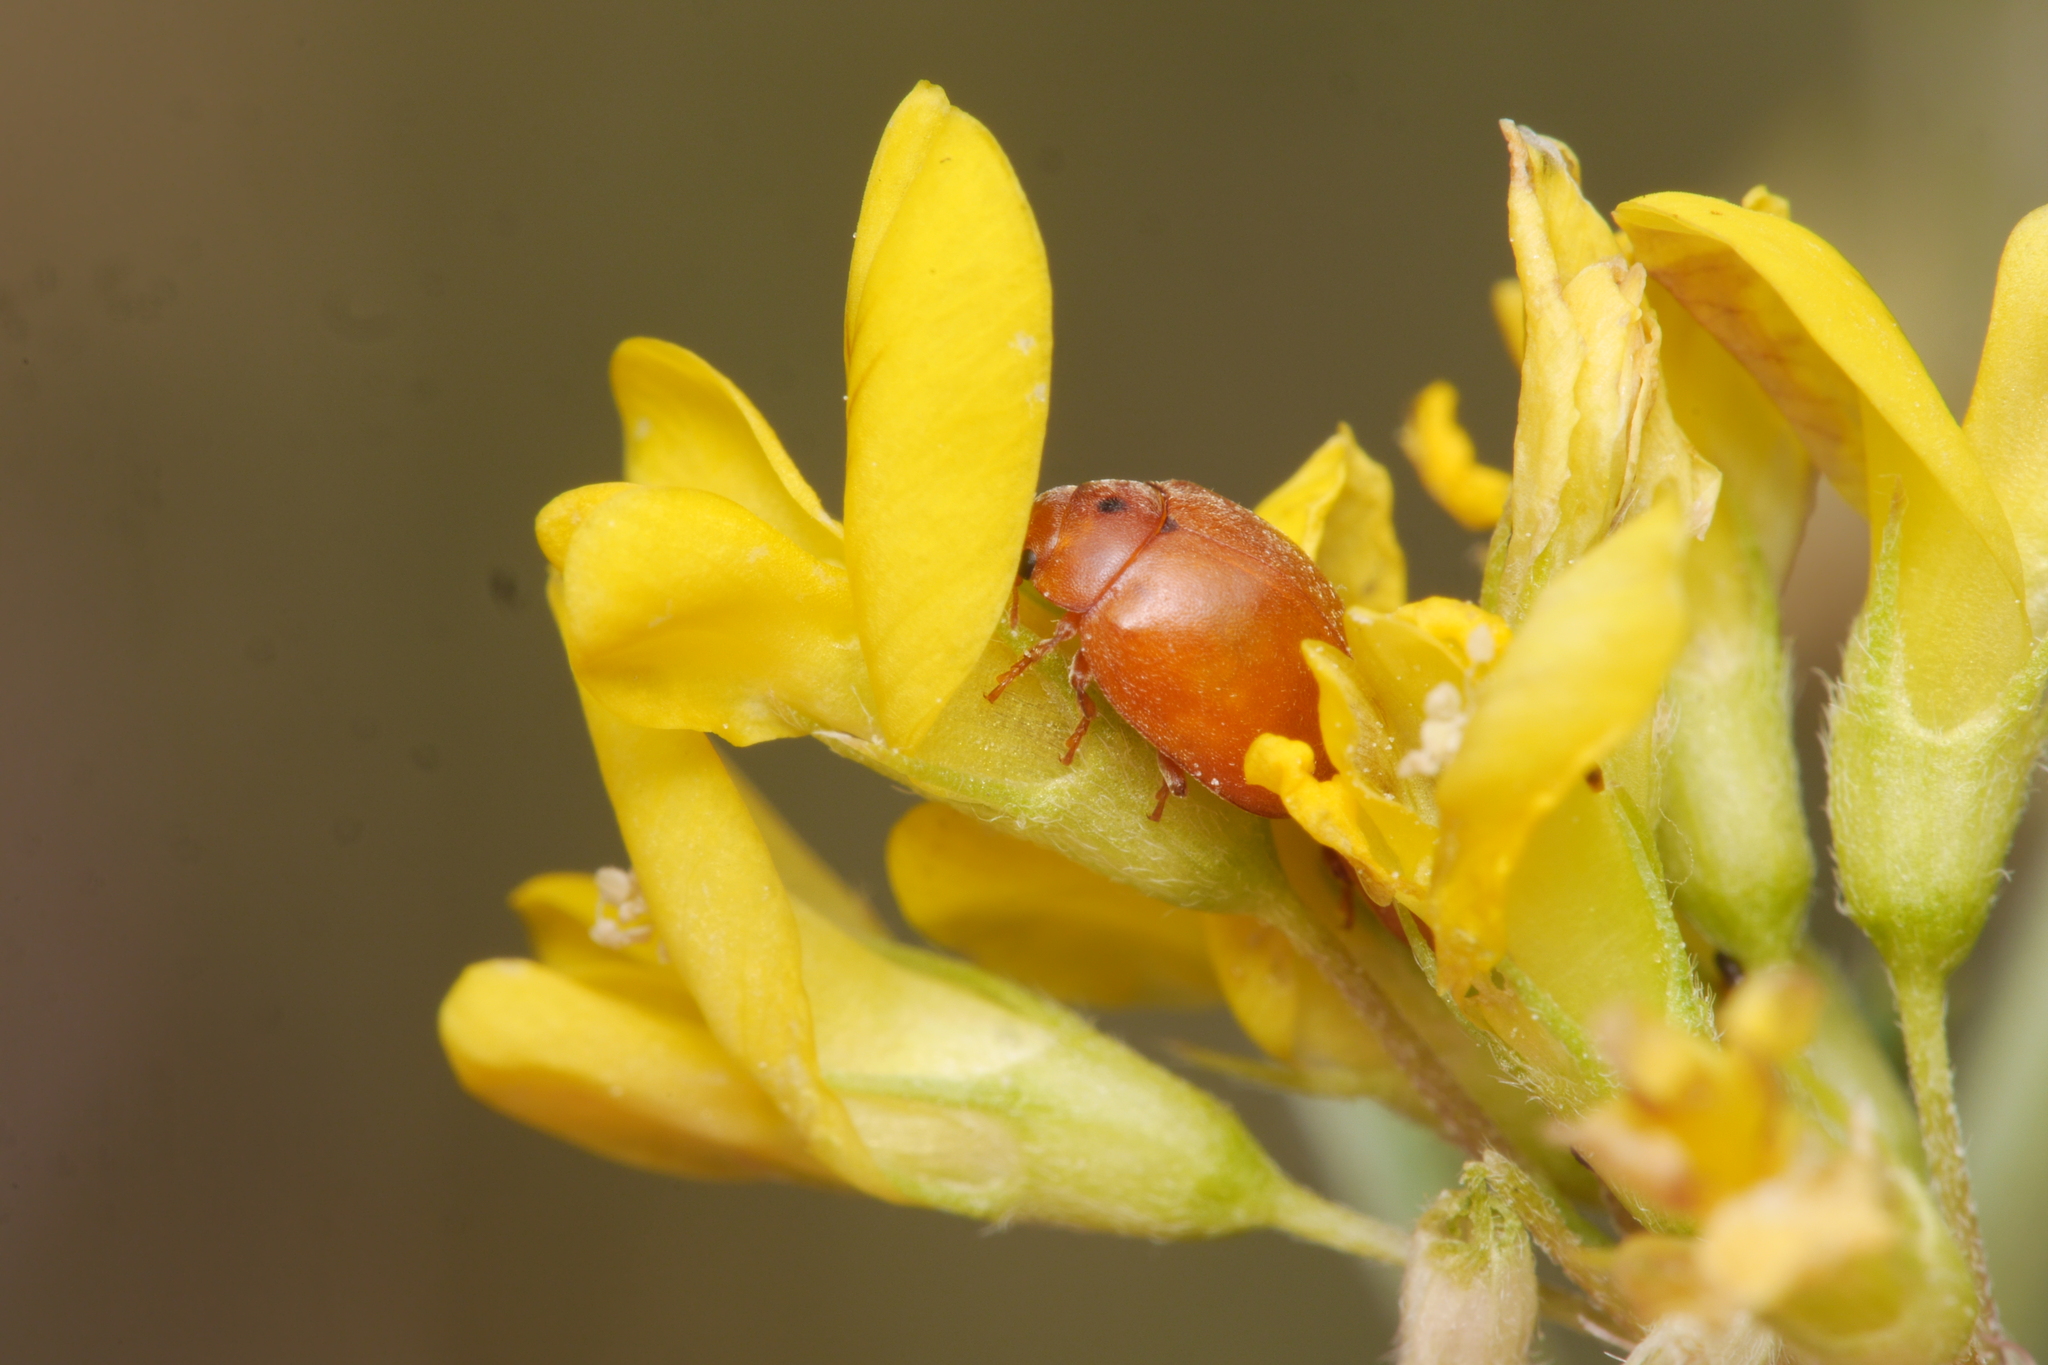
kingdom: Animalia
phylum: Arthropoda
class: Insecta
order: Coleoptera
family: Coccinellidae
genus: Subcoccinella
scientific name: Subcoccinella vigintiquatuorpunctata
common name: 24-spot ladybird
